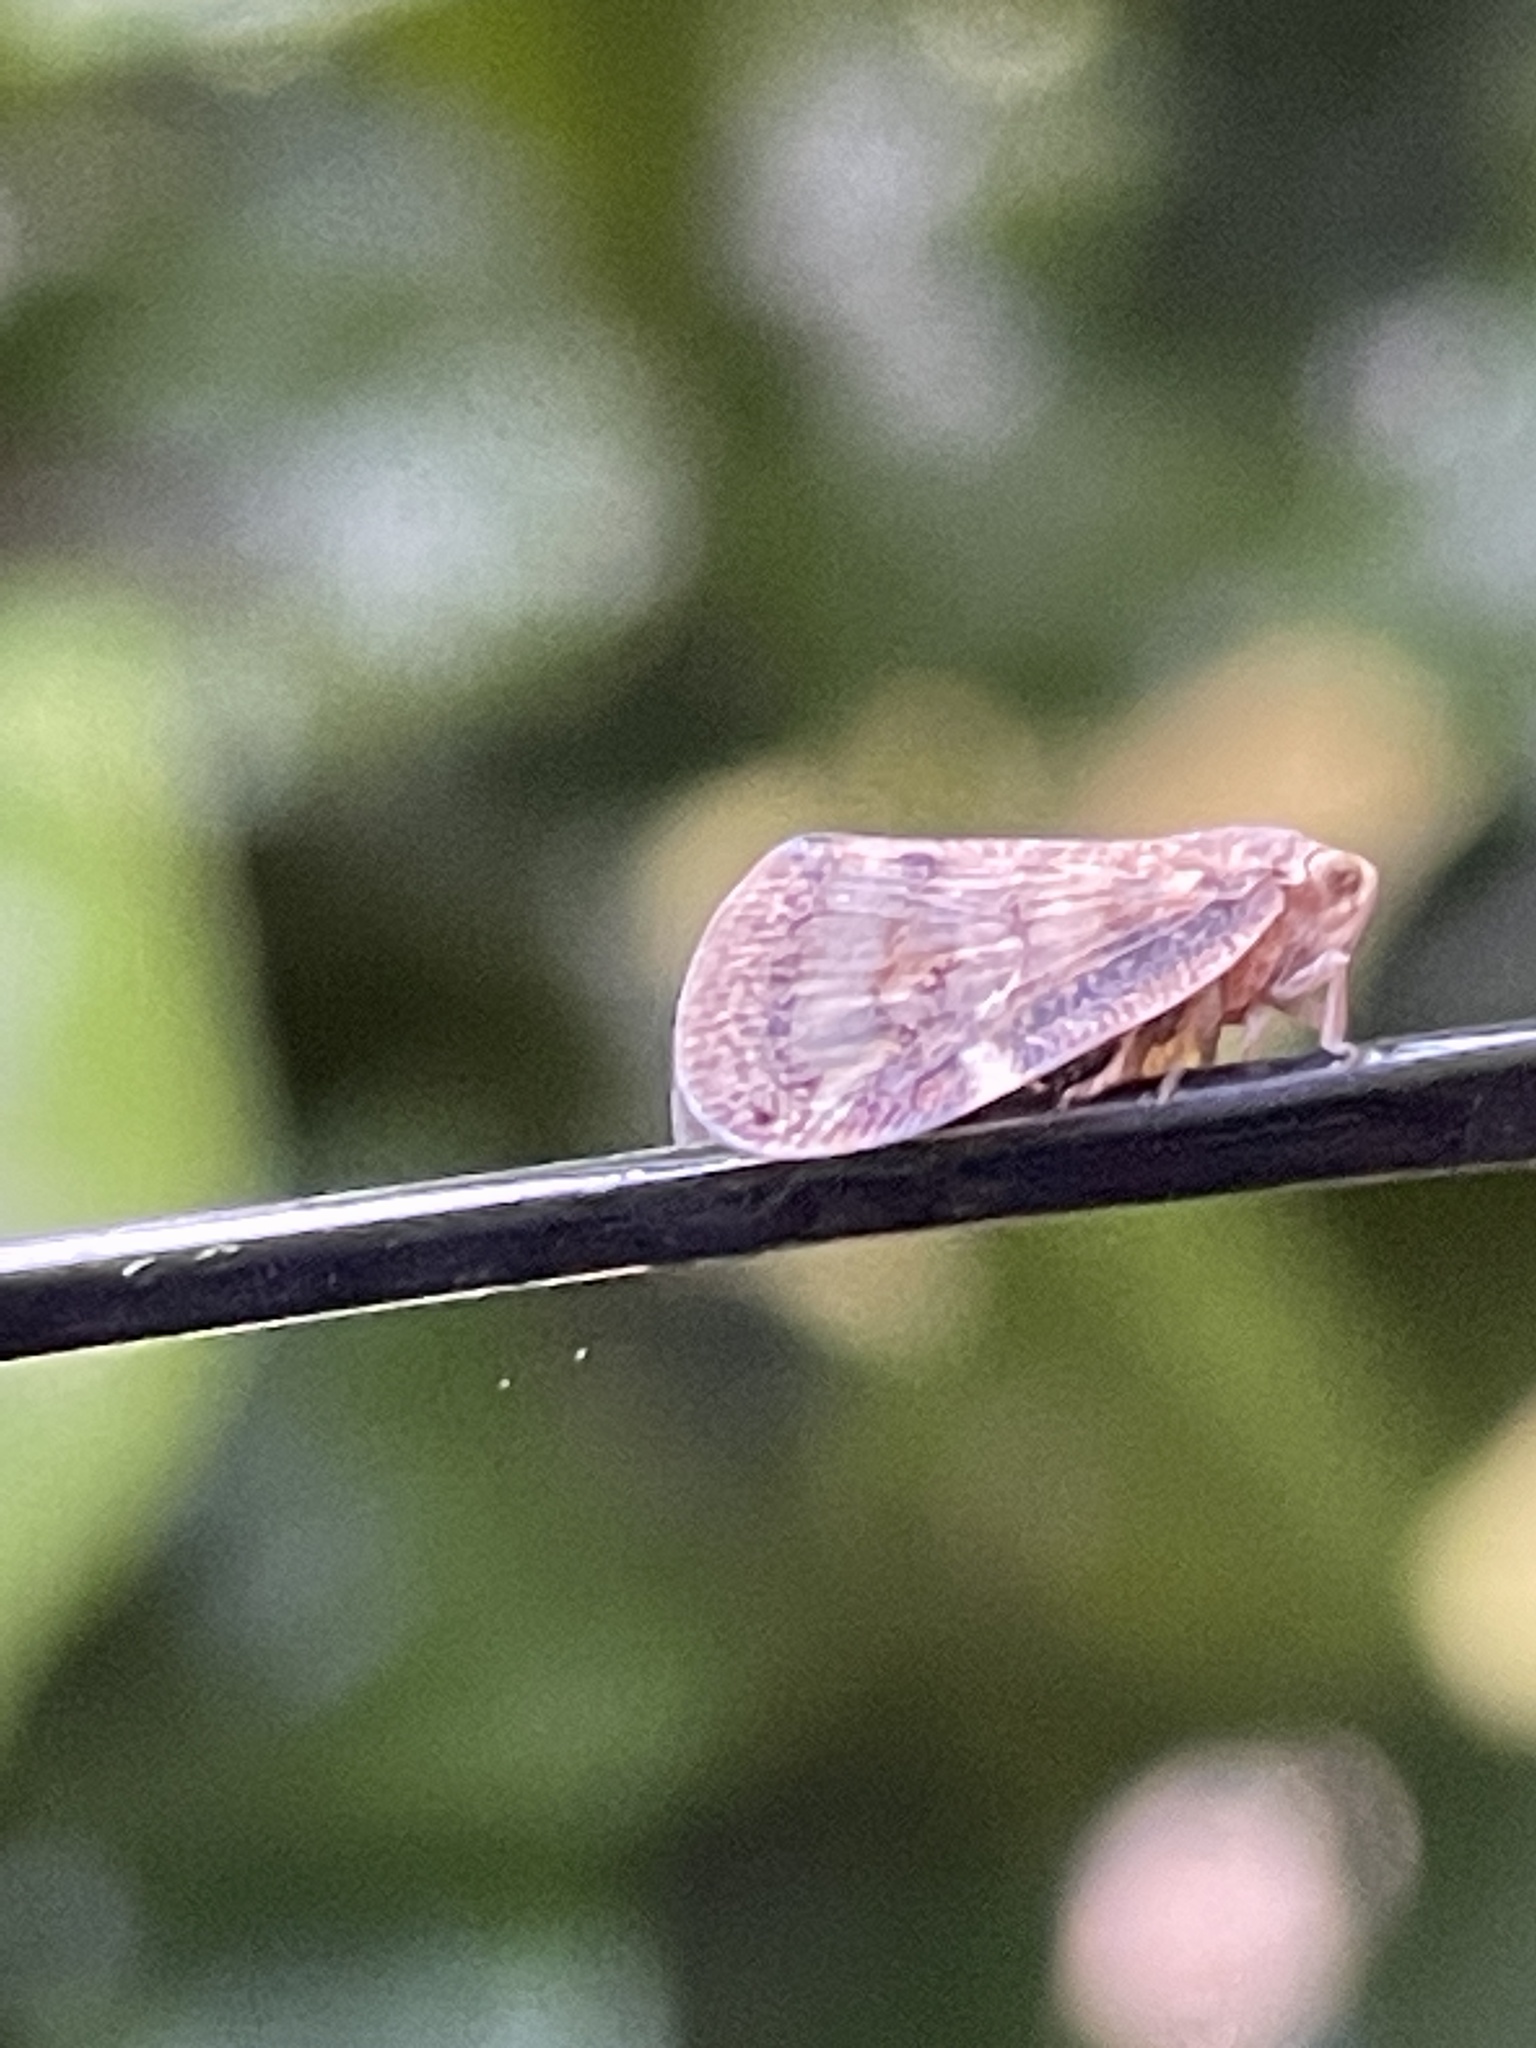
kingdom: Animalia
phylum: Arthropoda
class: Insecta
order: Hemiptera
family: Ricaniidae
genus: Scolypopa
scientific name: Scolypopa australis
